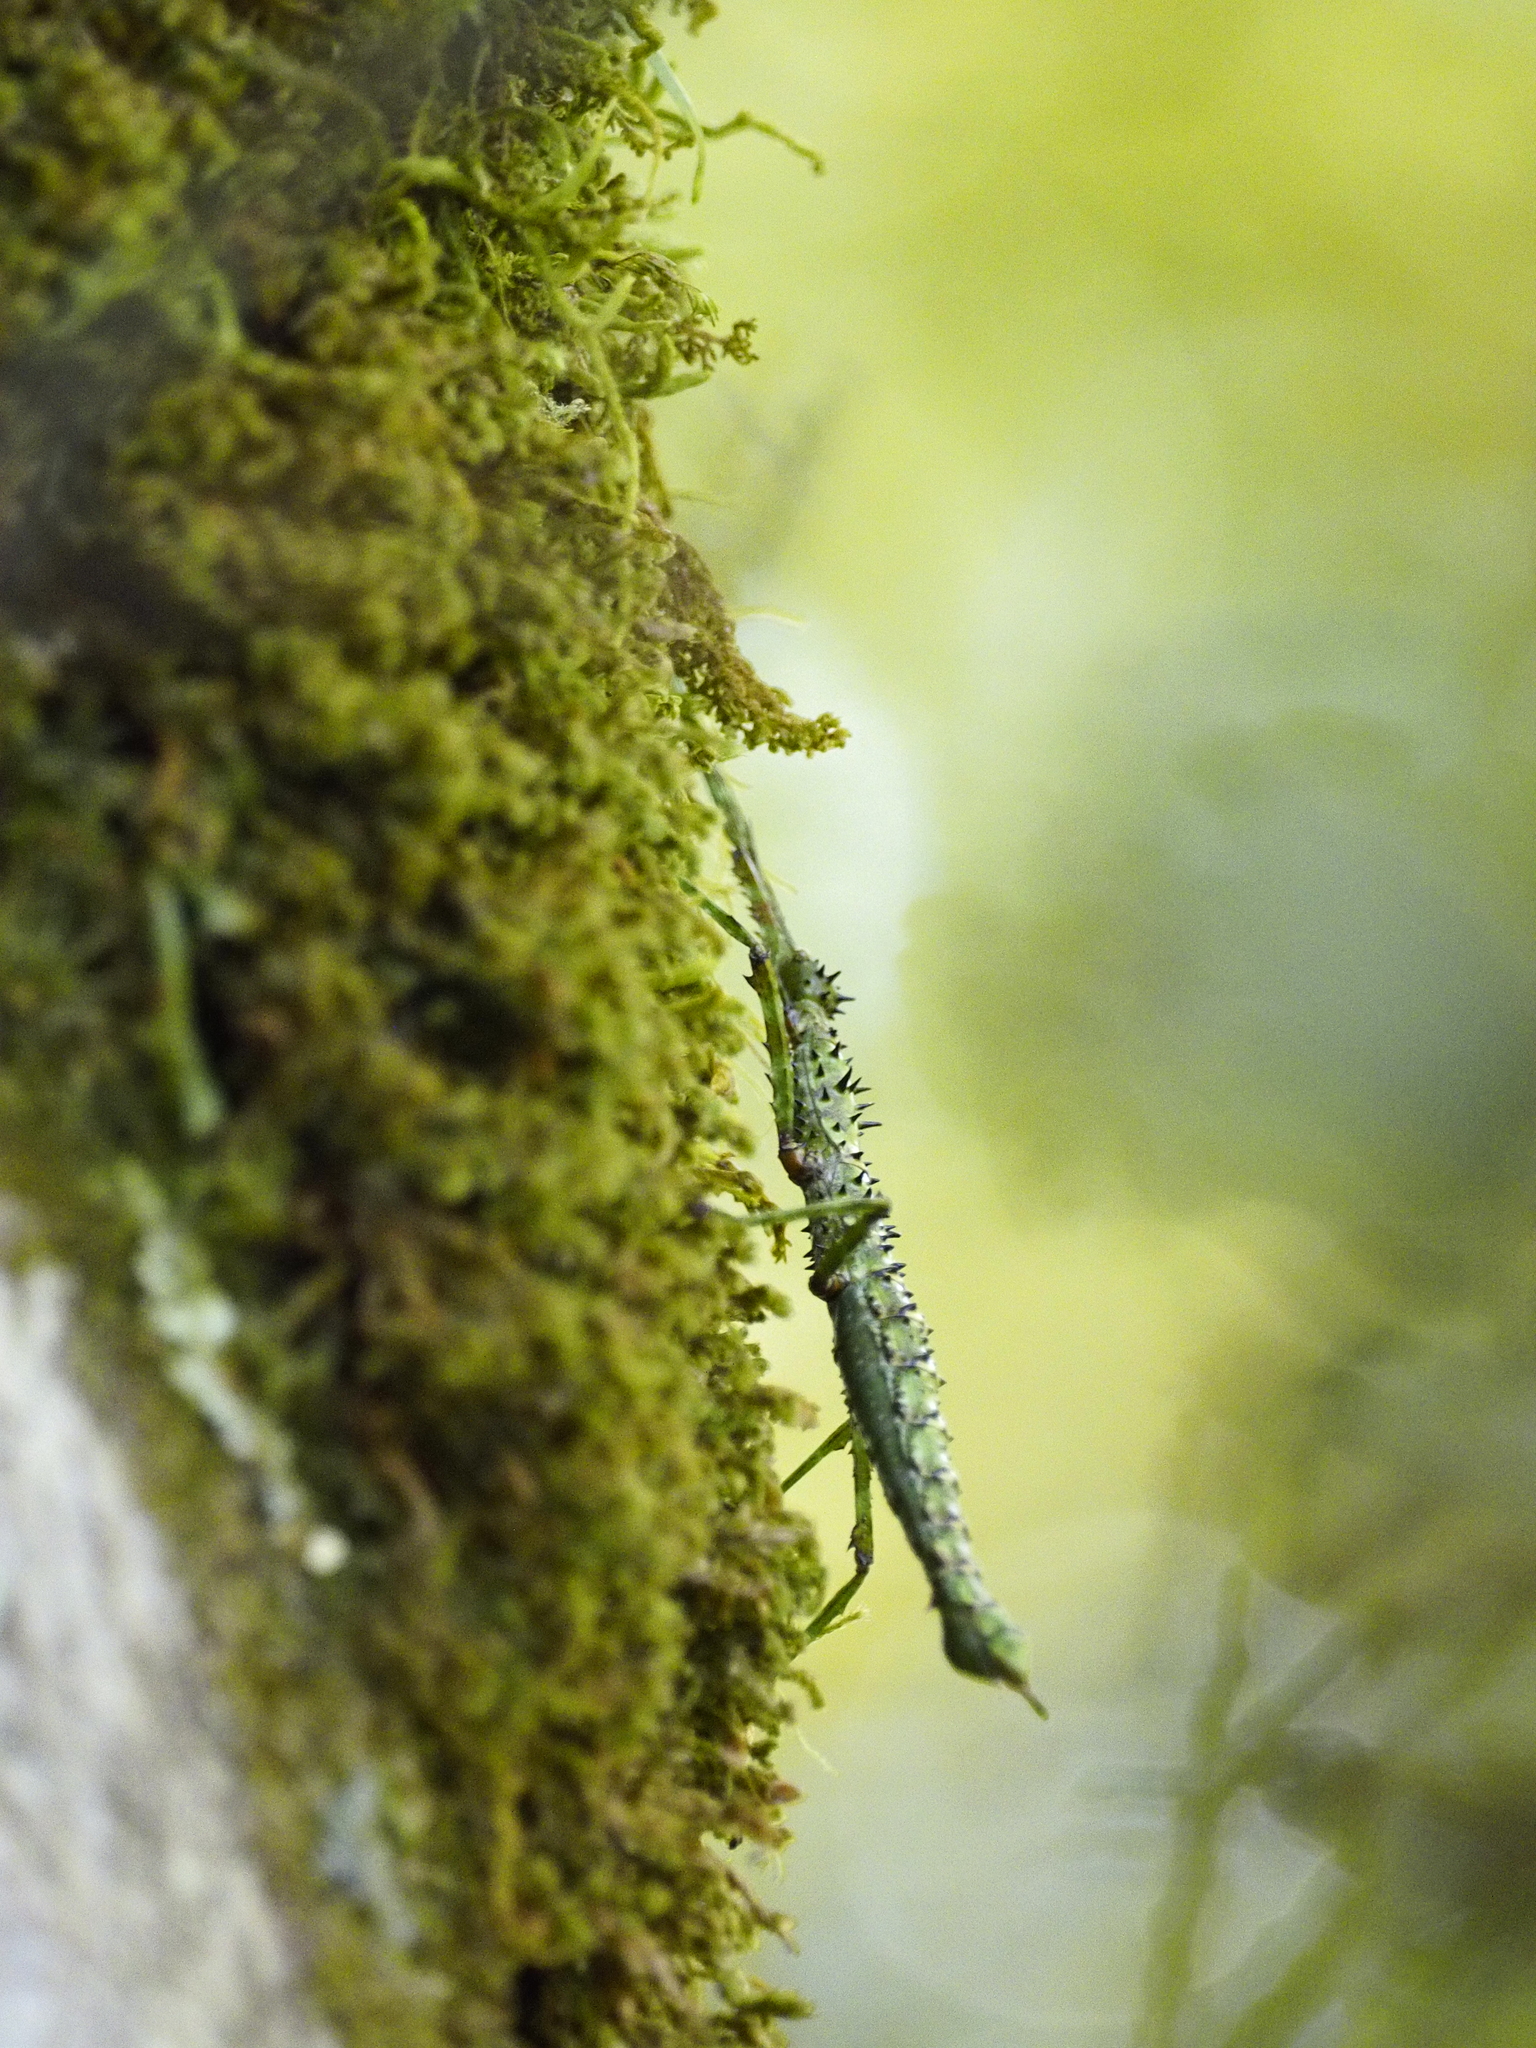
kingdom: Animalia
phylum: Arthropoda
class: Insecta
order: Phasmida
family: Phasmatidae
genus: Acanthoxyla
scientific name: Acanthoxyla prasina
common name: Black-spined stick insect
